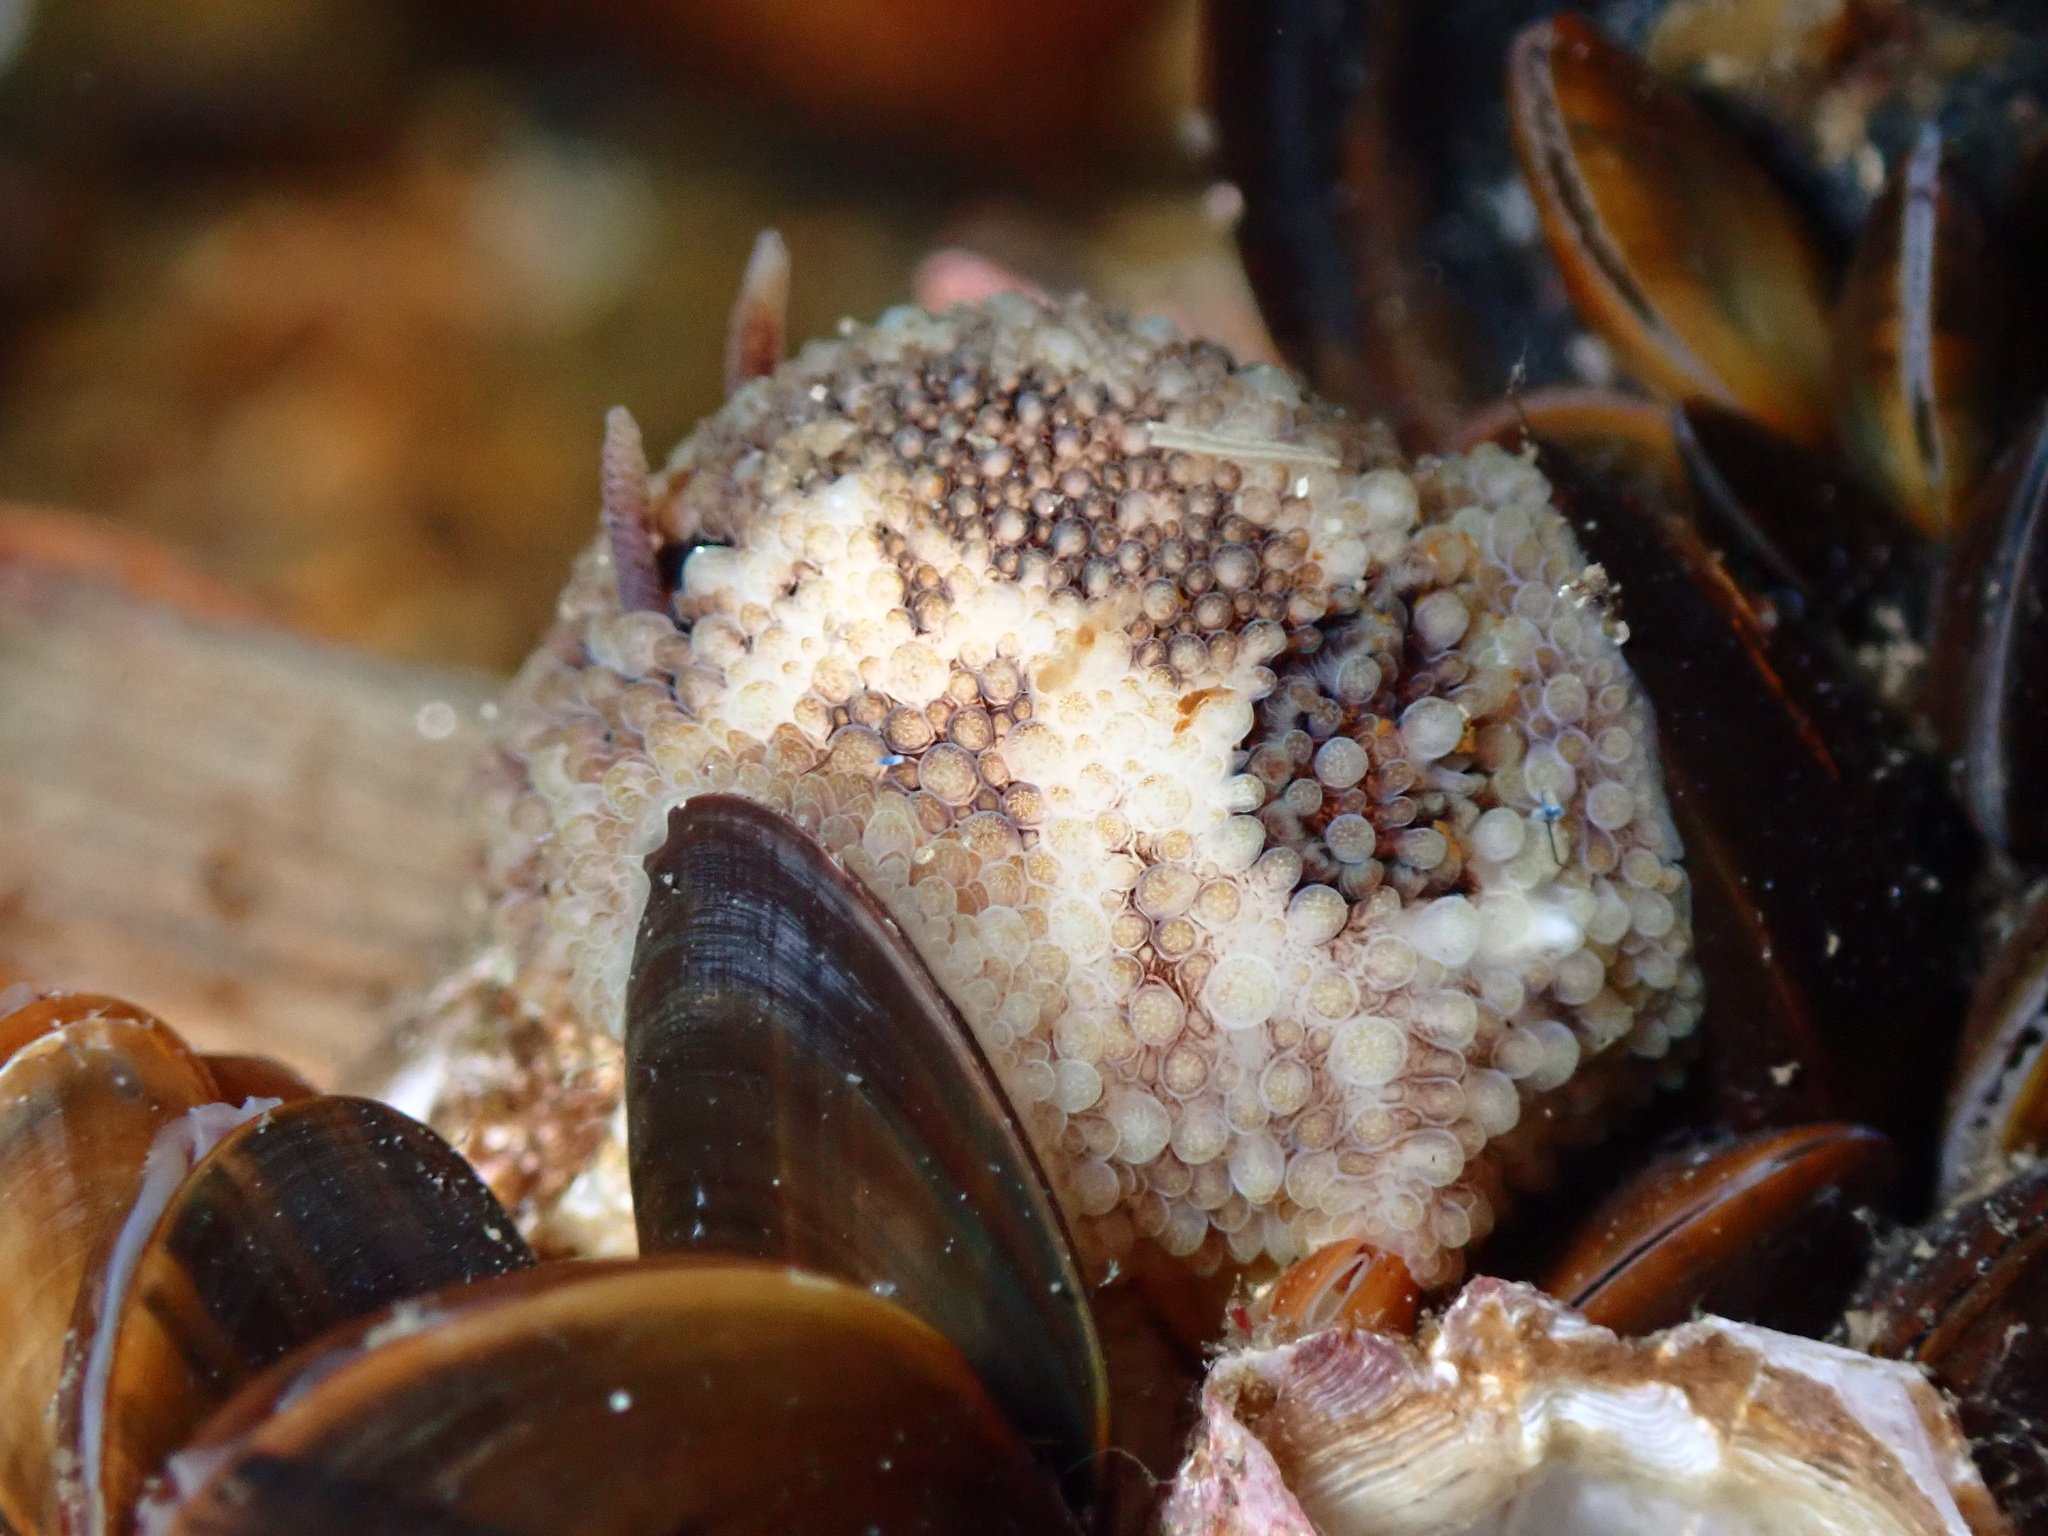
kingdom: Animalia
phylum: Mollusca
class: Gastropoda
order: Nudibranchia
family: Onchidorididae
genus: Onchidoris
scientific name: Onchidoris bilamellata
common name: Barnacle-eating onchidoris
